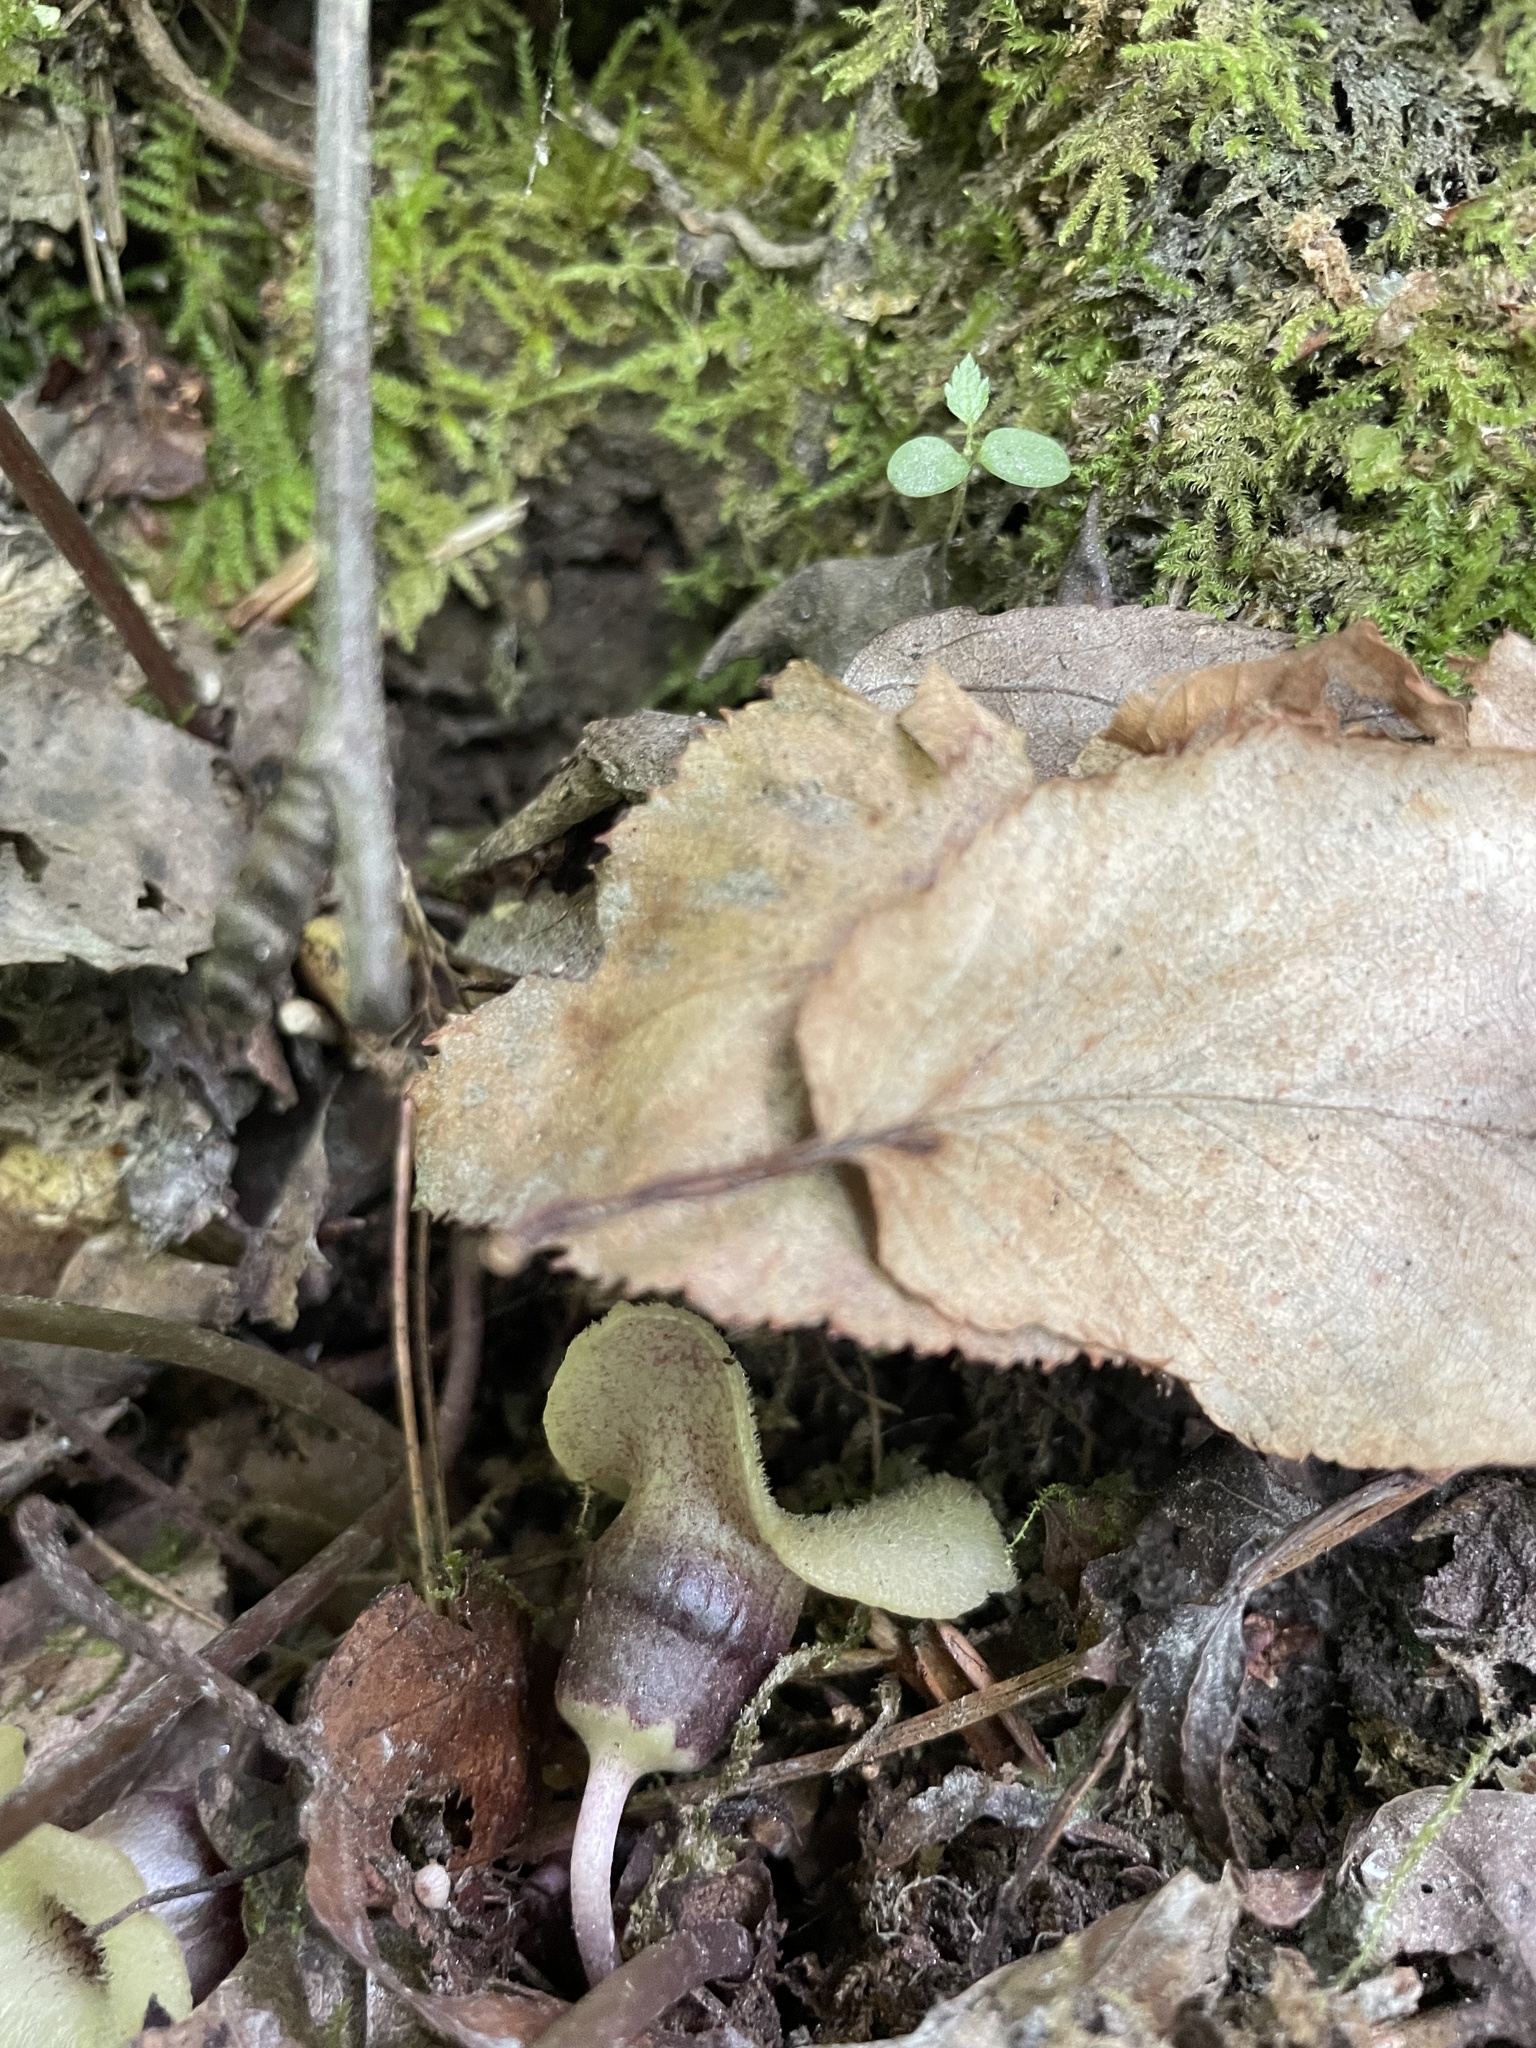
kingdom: Plantae
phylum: Tracheophyta
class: Magnoliopsida
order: Piperales
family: Aristolochiaceae
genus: Hexastylis
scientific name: Hexastylis rosei
